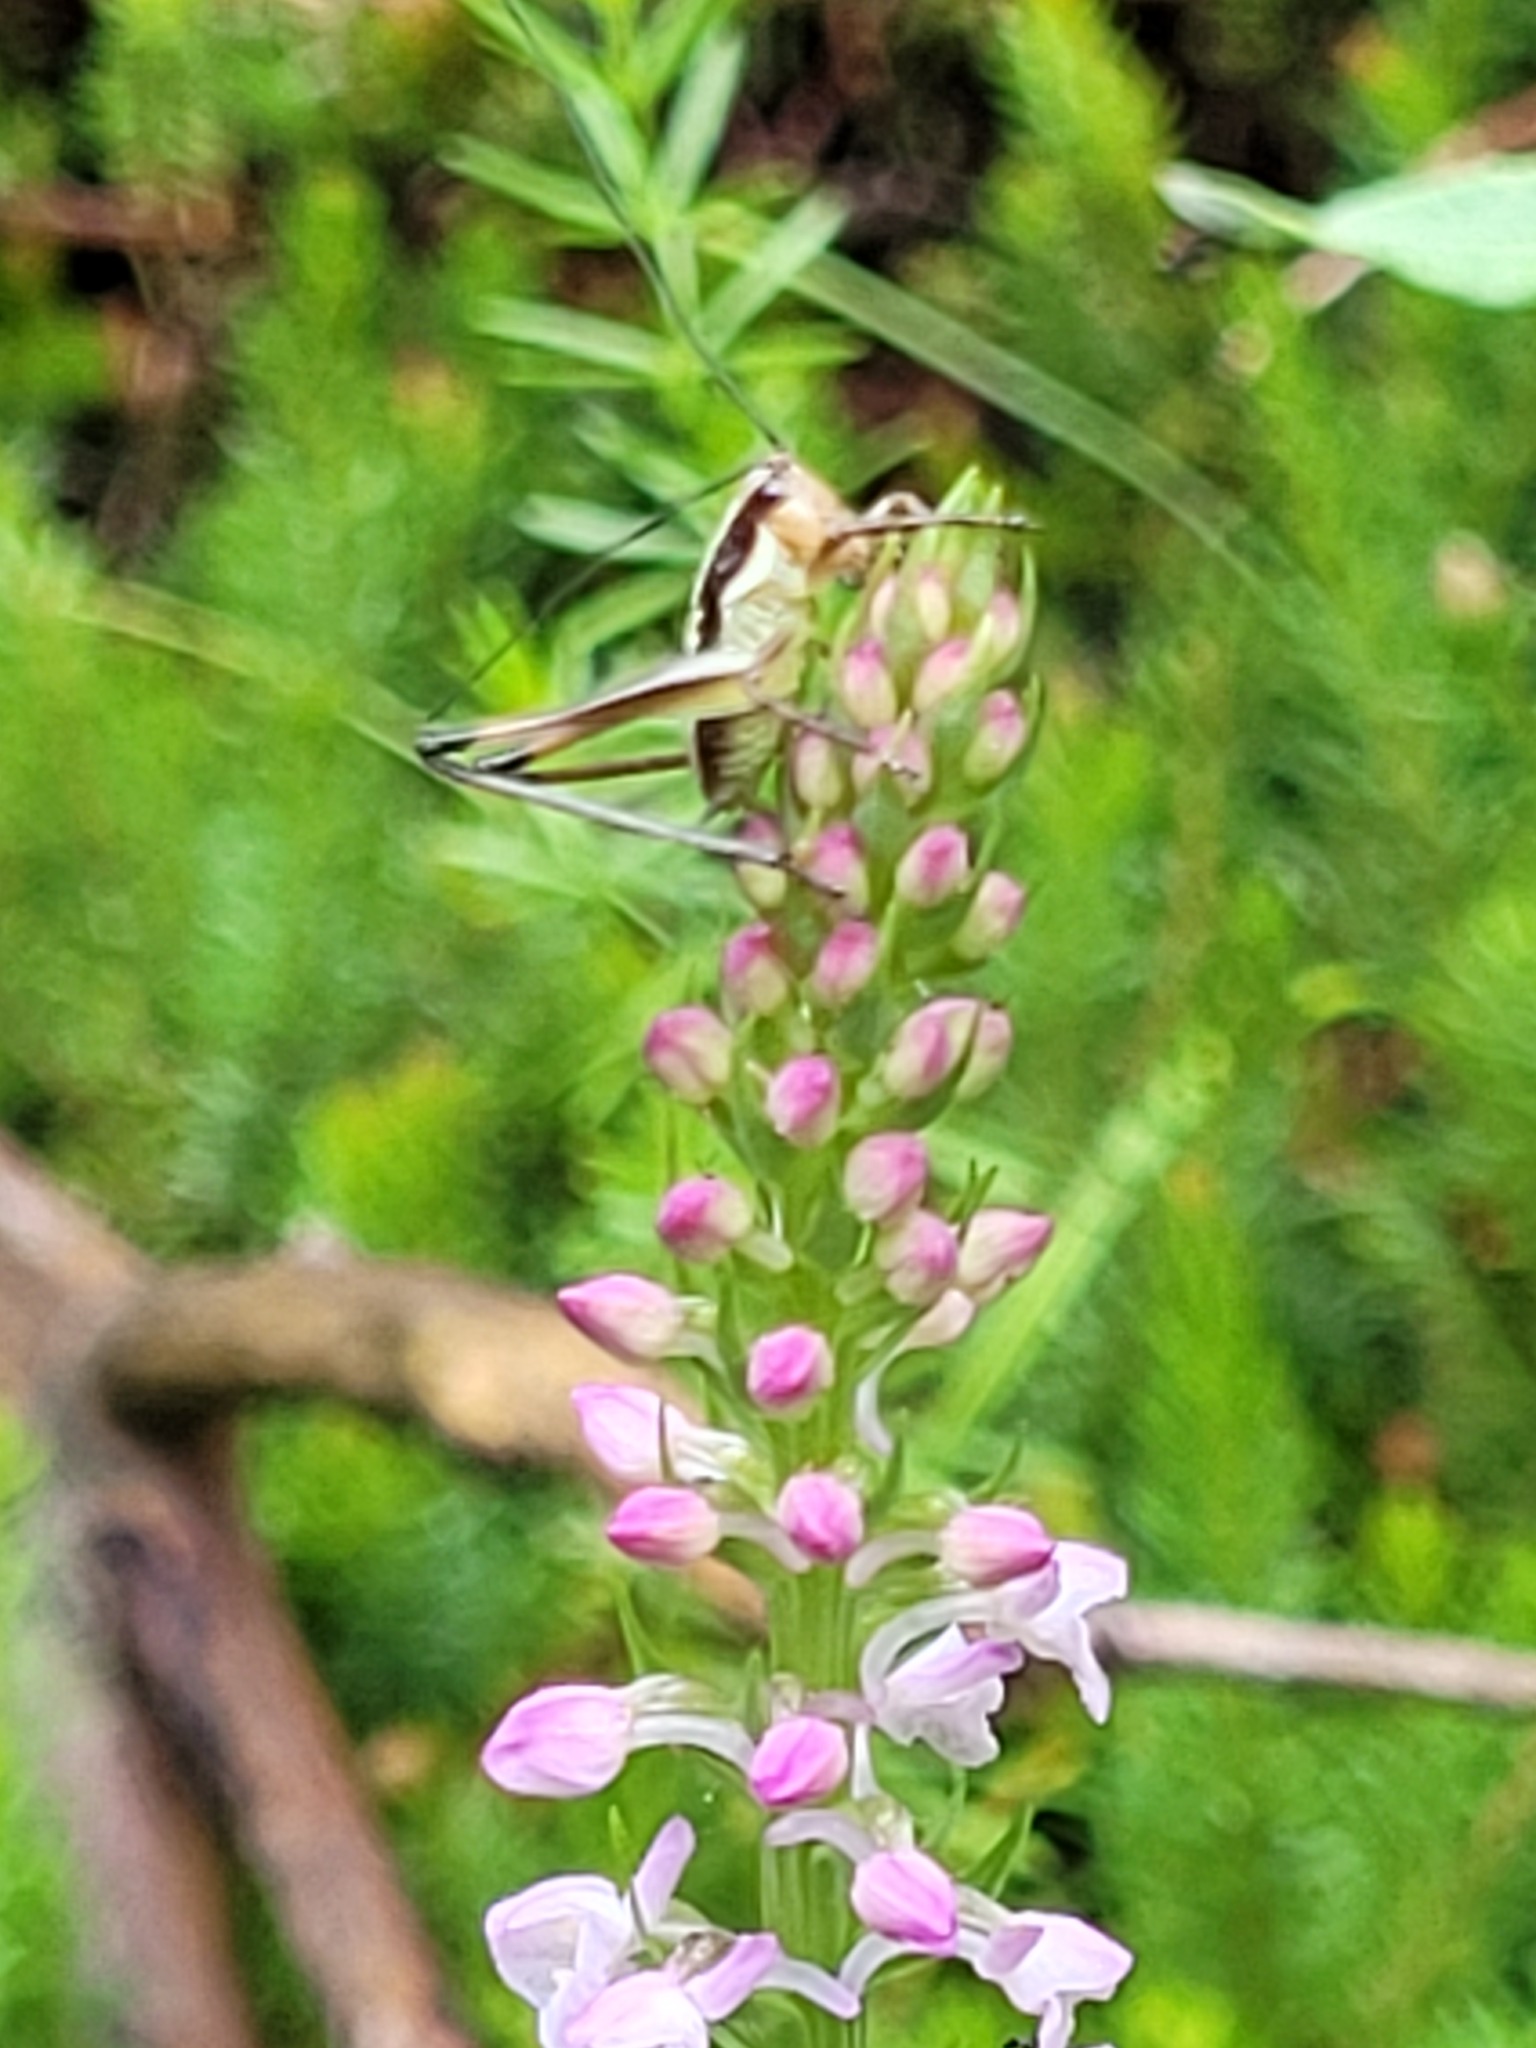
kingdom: Animalia
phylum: Arthropoda
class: Insecta
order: Orthoptera
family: Tettigoniidae
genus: Pachytrachis
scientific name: Pachytrachis gracilis
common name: Graceful bush-cricket
